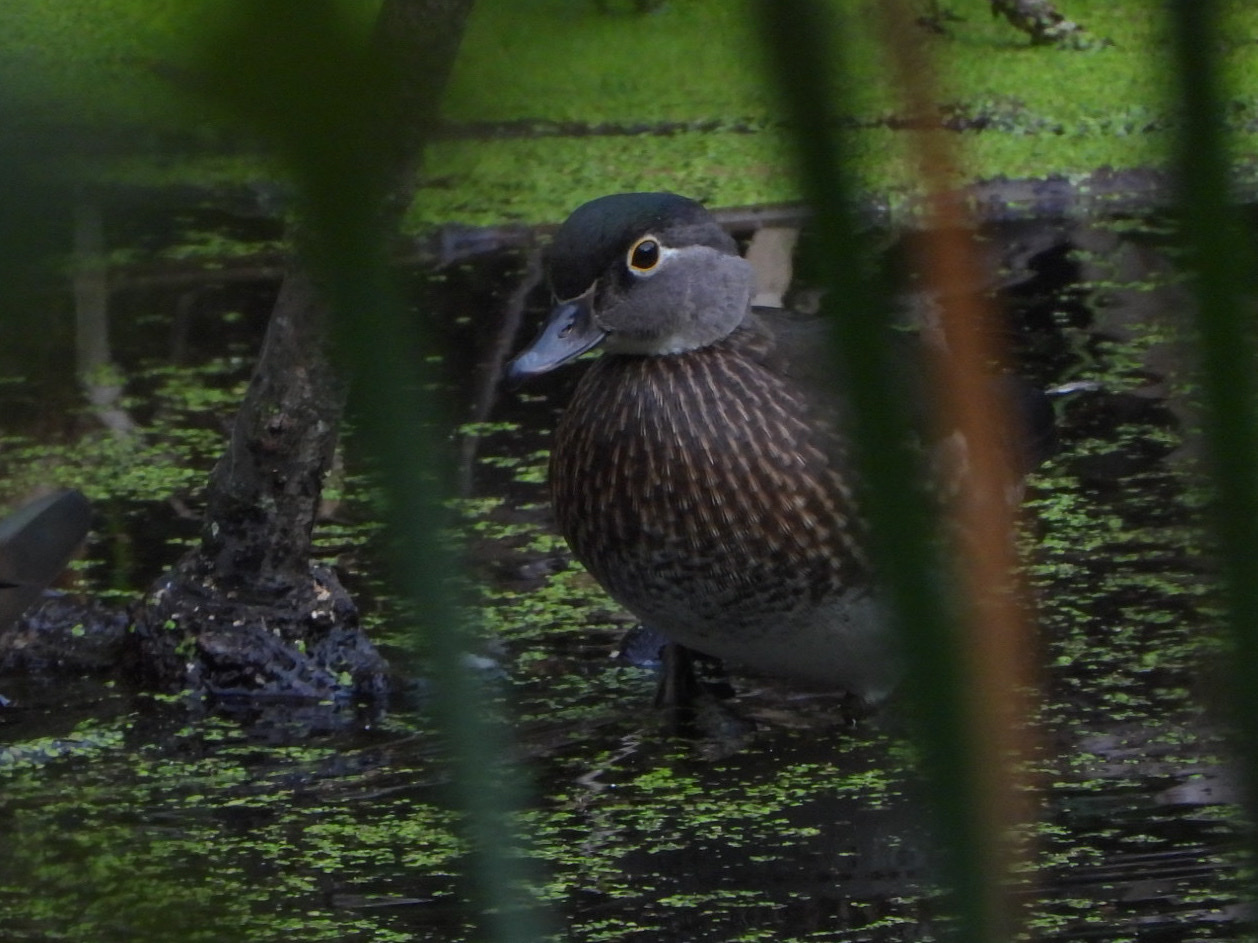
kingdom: Animalia
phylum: Chordata
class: Aves
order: Anseriformes
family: Anatidae
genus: Aix
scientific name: Aix sponsa
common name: Wood duck
